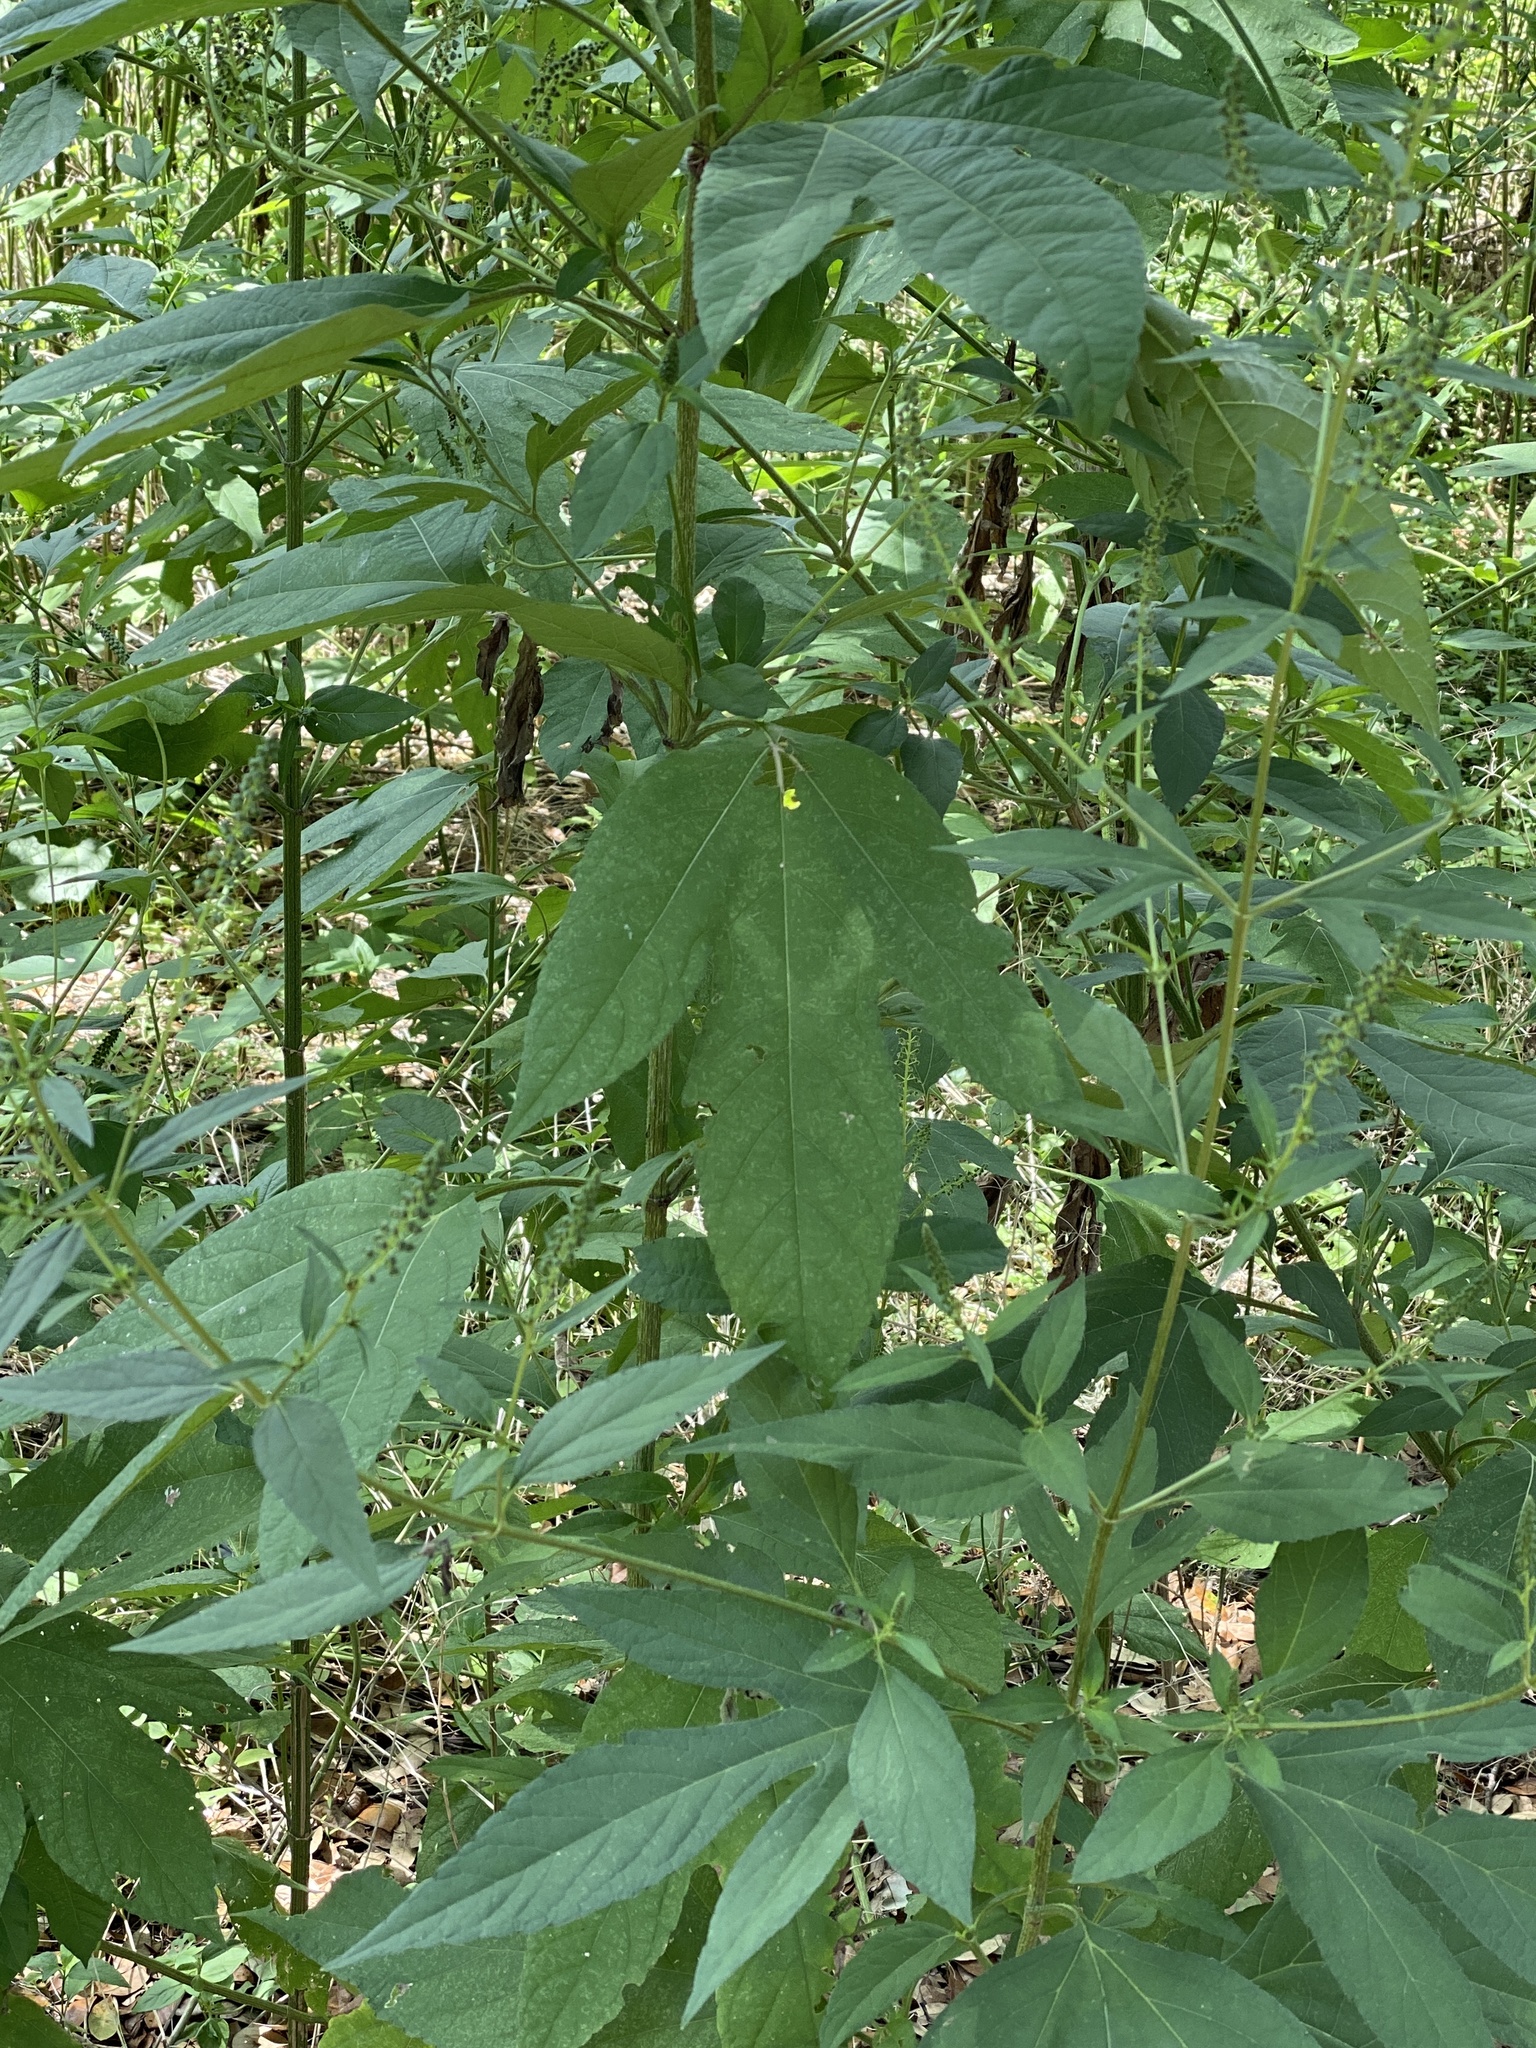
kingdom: Plantae
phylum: Tracheophyta
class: Magnoliopsida
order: Asterales
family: Asteraceae
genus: Ambrosia
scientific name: Ambrosia trifida
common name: Giant ragweed
